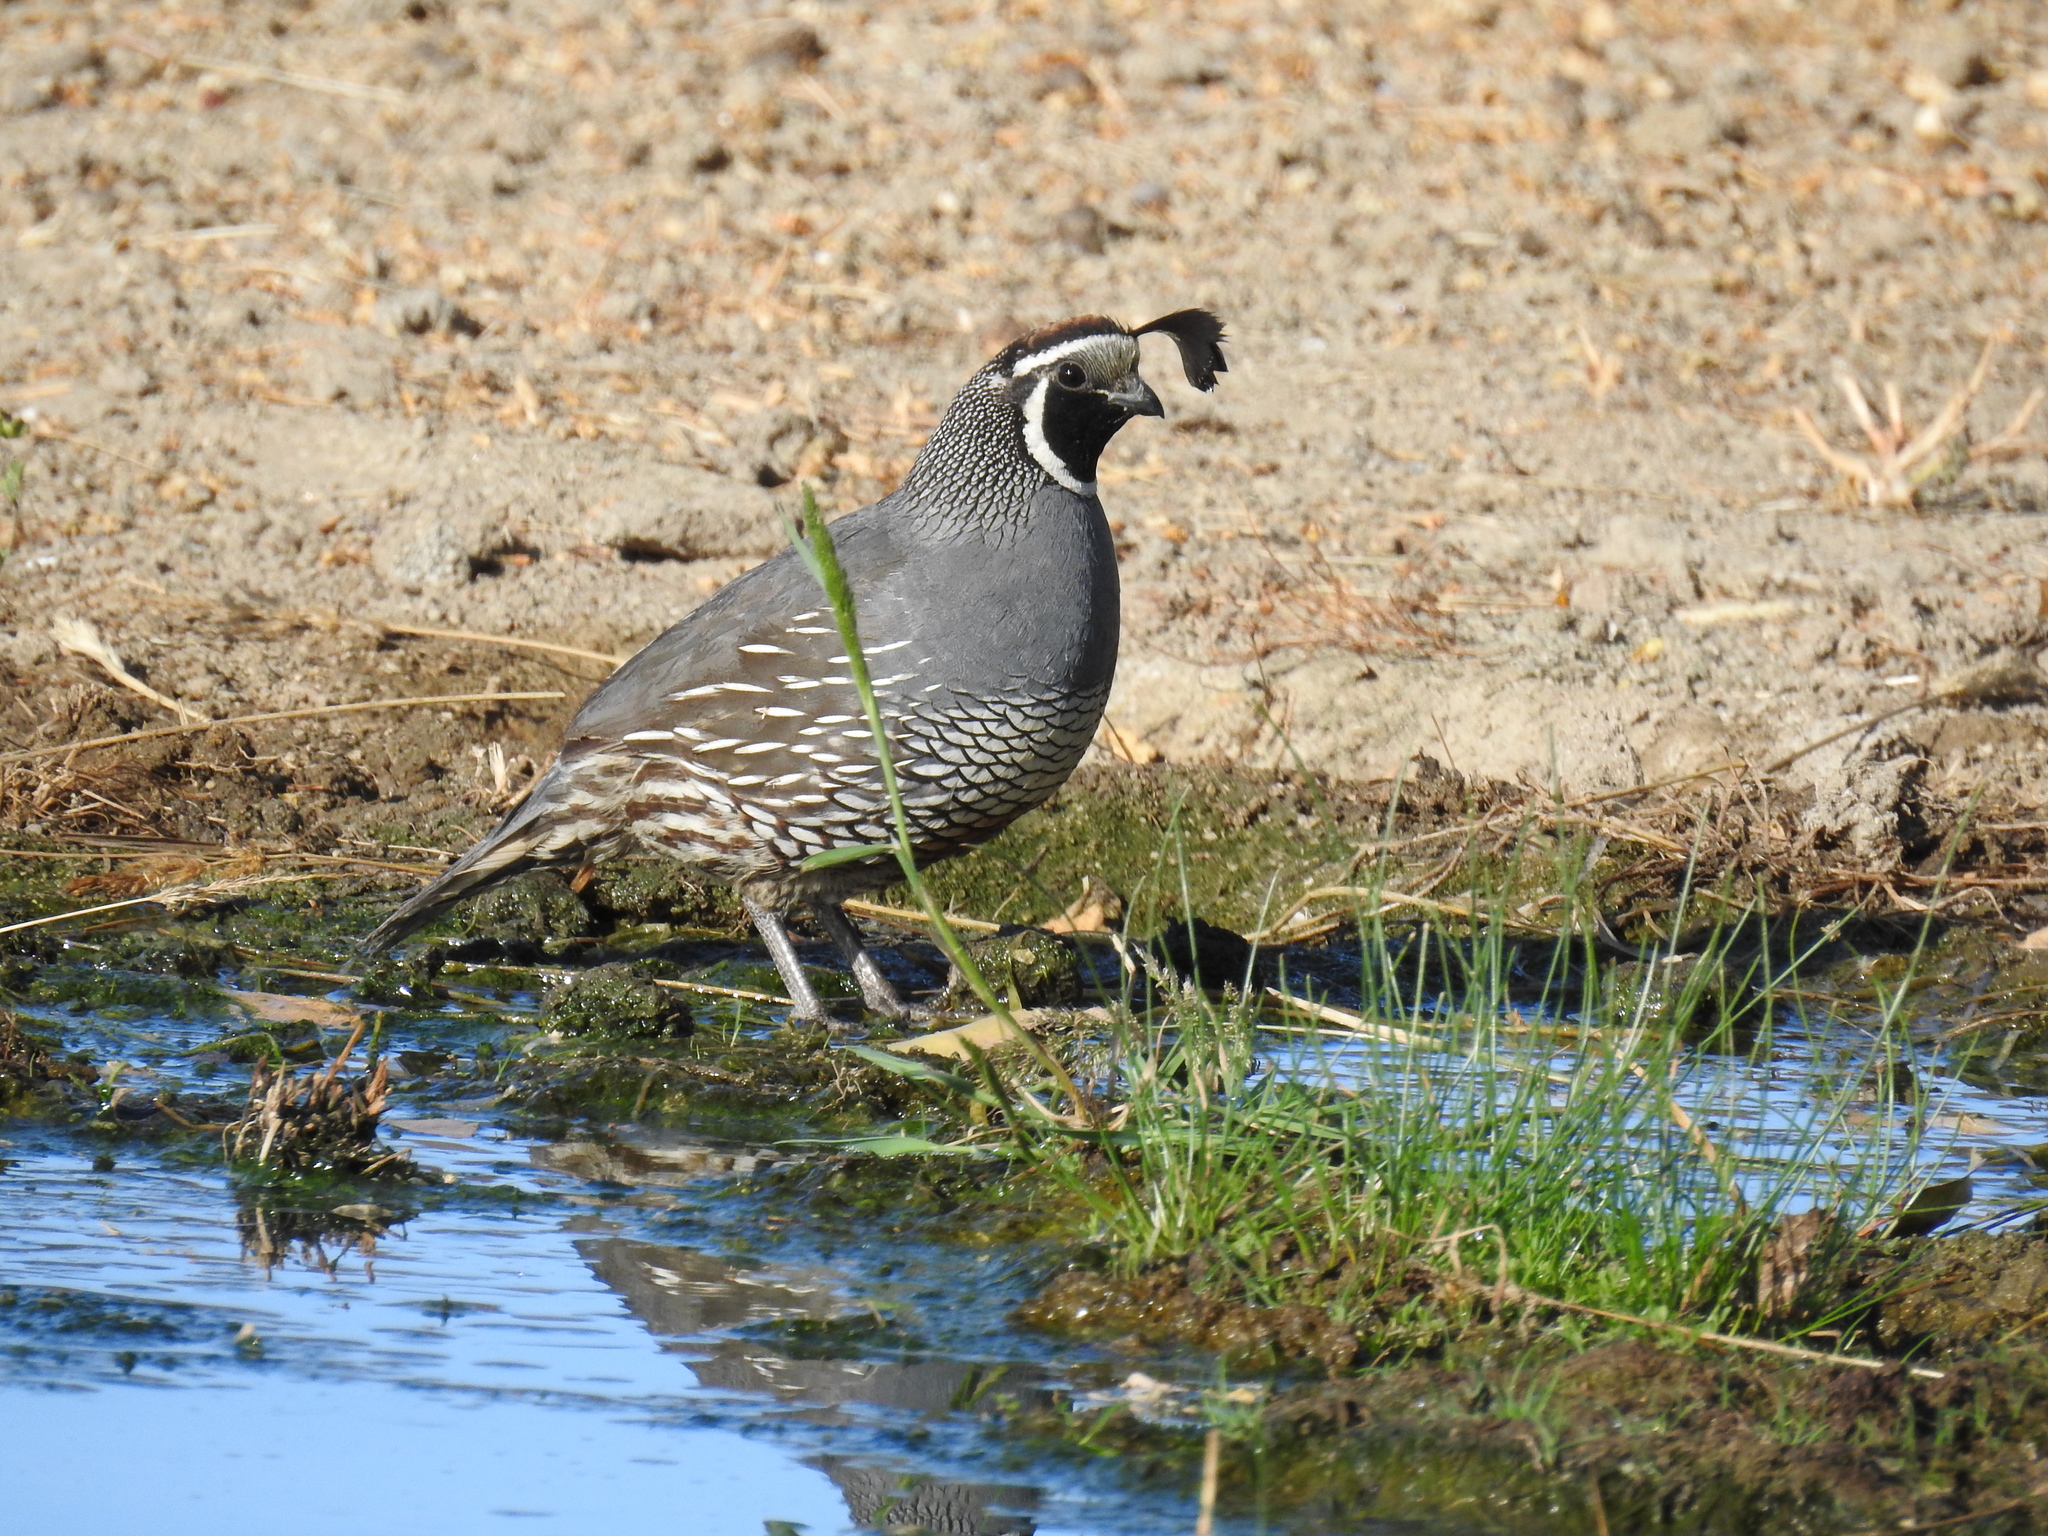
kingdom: Animalia
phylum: Chordata
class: Aves
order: Galliformes
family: Odontophoridae
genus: Callipepla
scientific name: Callipepla californica
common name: California quail
